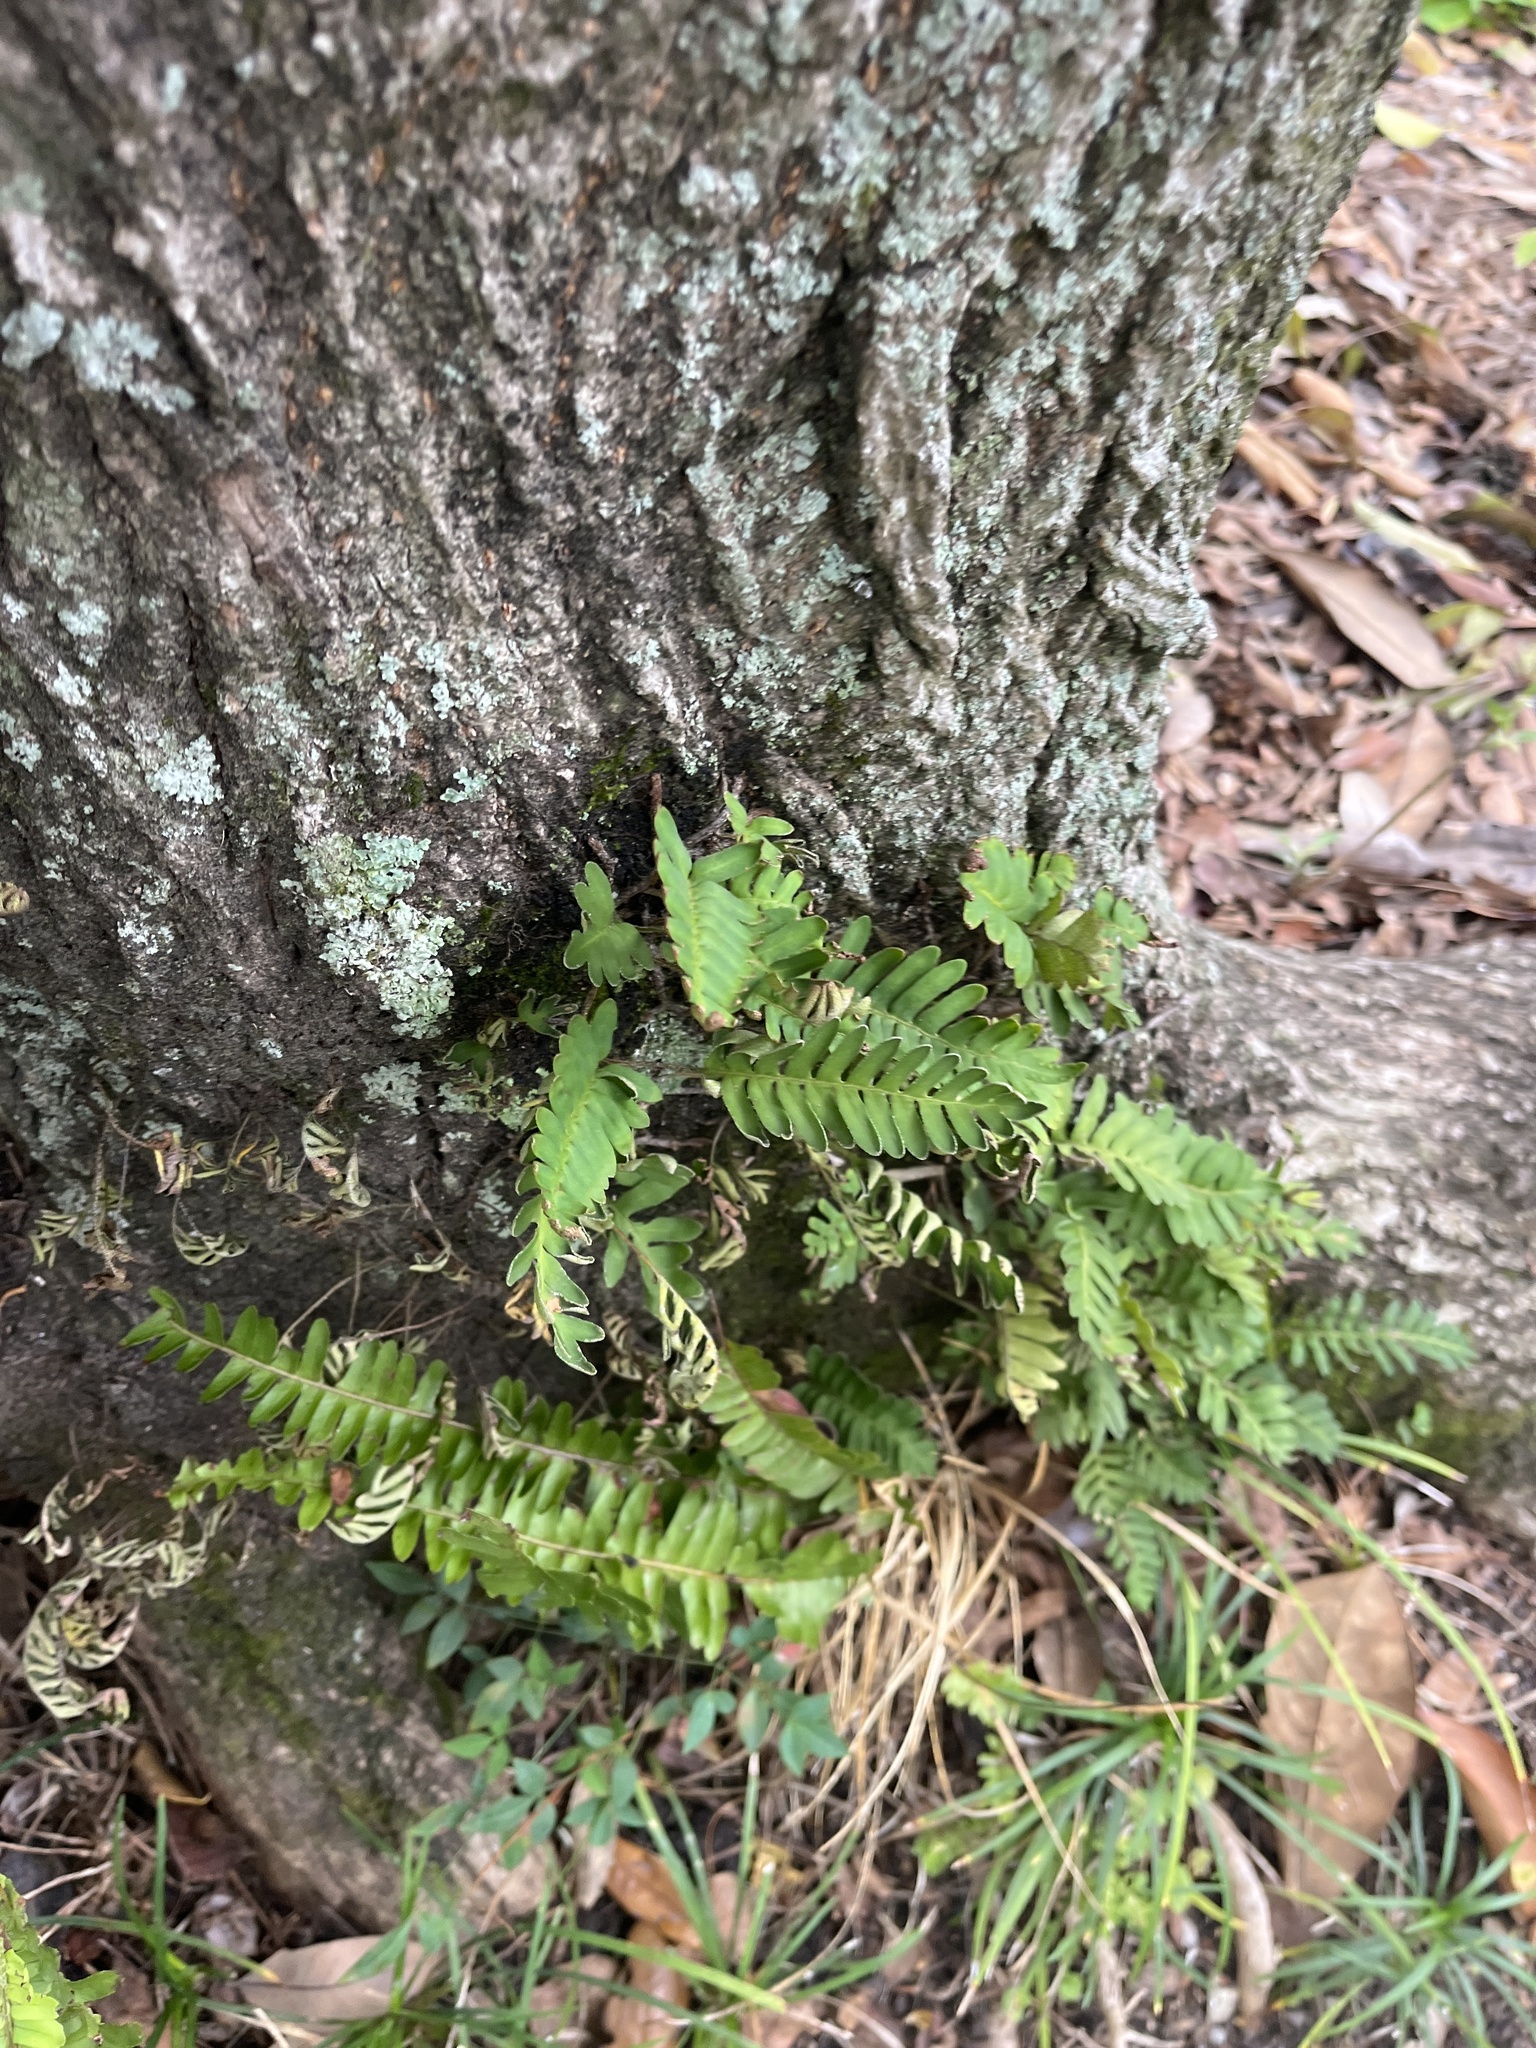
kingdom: Plantae
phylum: Tracheophyta
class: Polypodiopsida
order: Polypodiales
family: Polypodiaceae
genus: Pleopeltis
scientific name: Pleopeltis michauxiana
